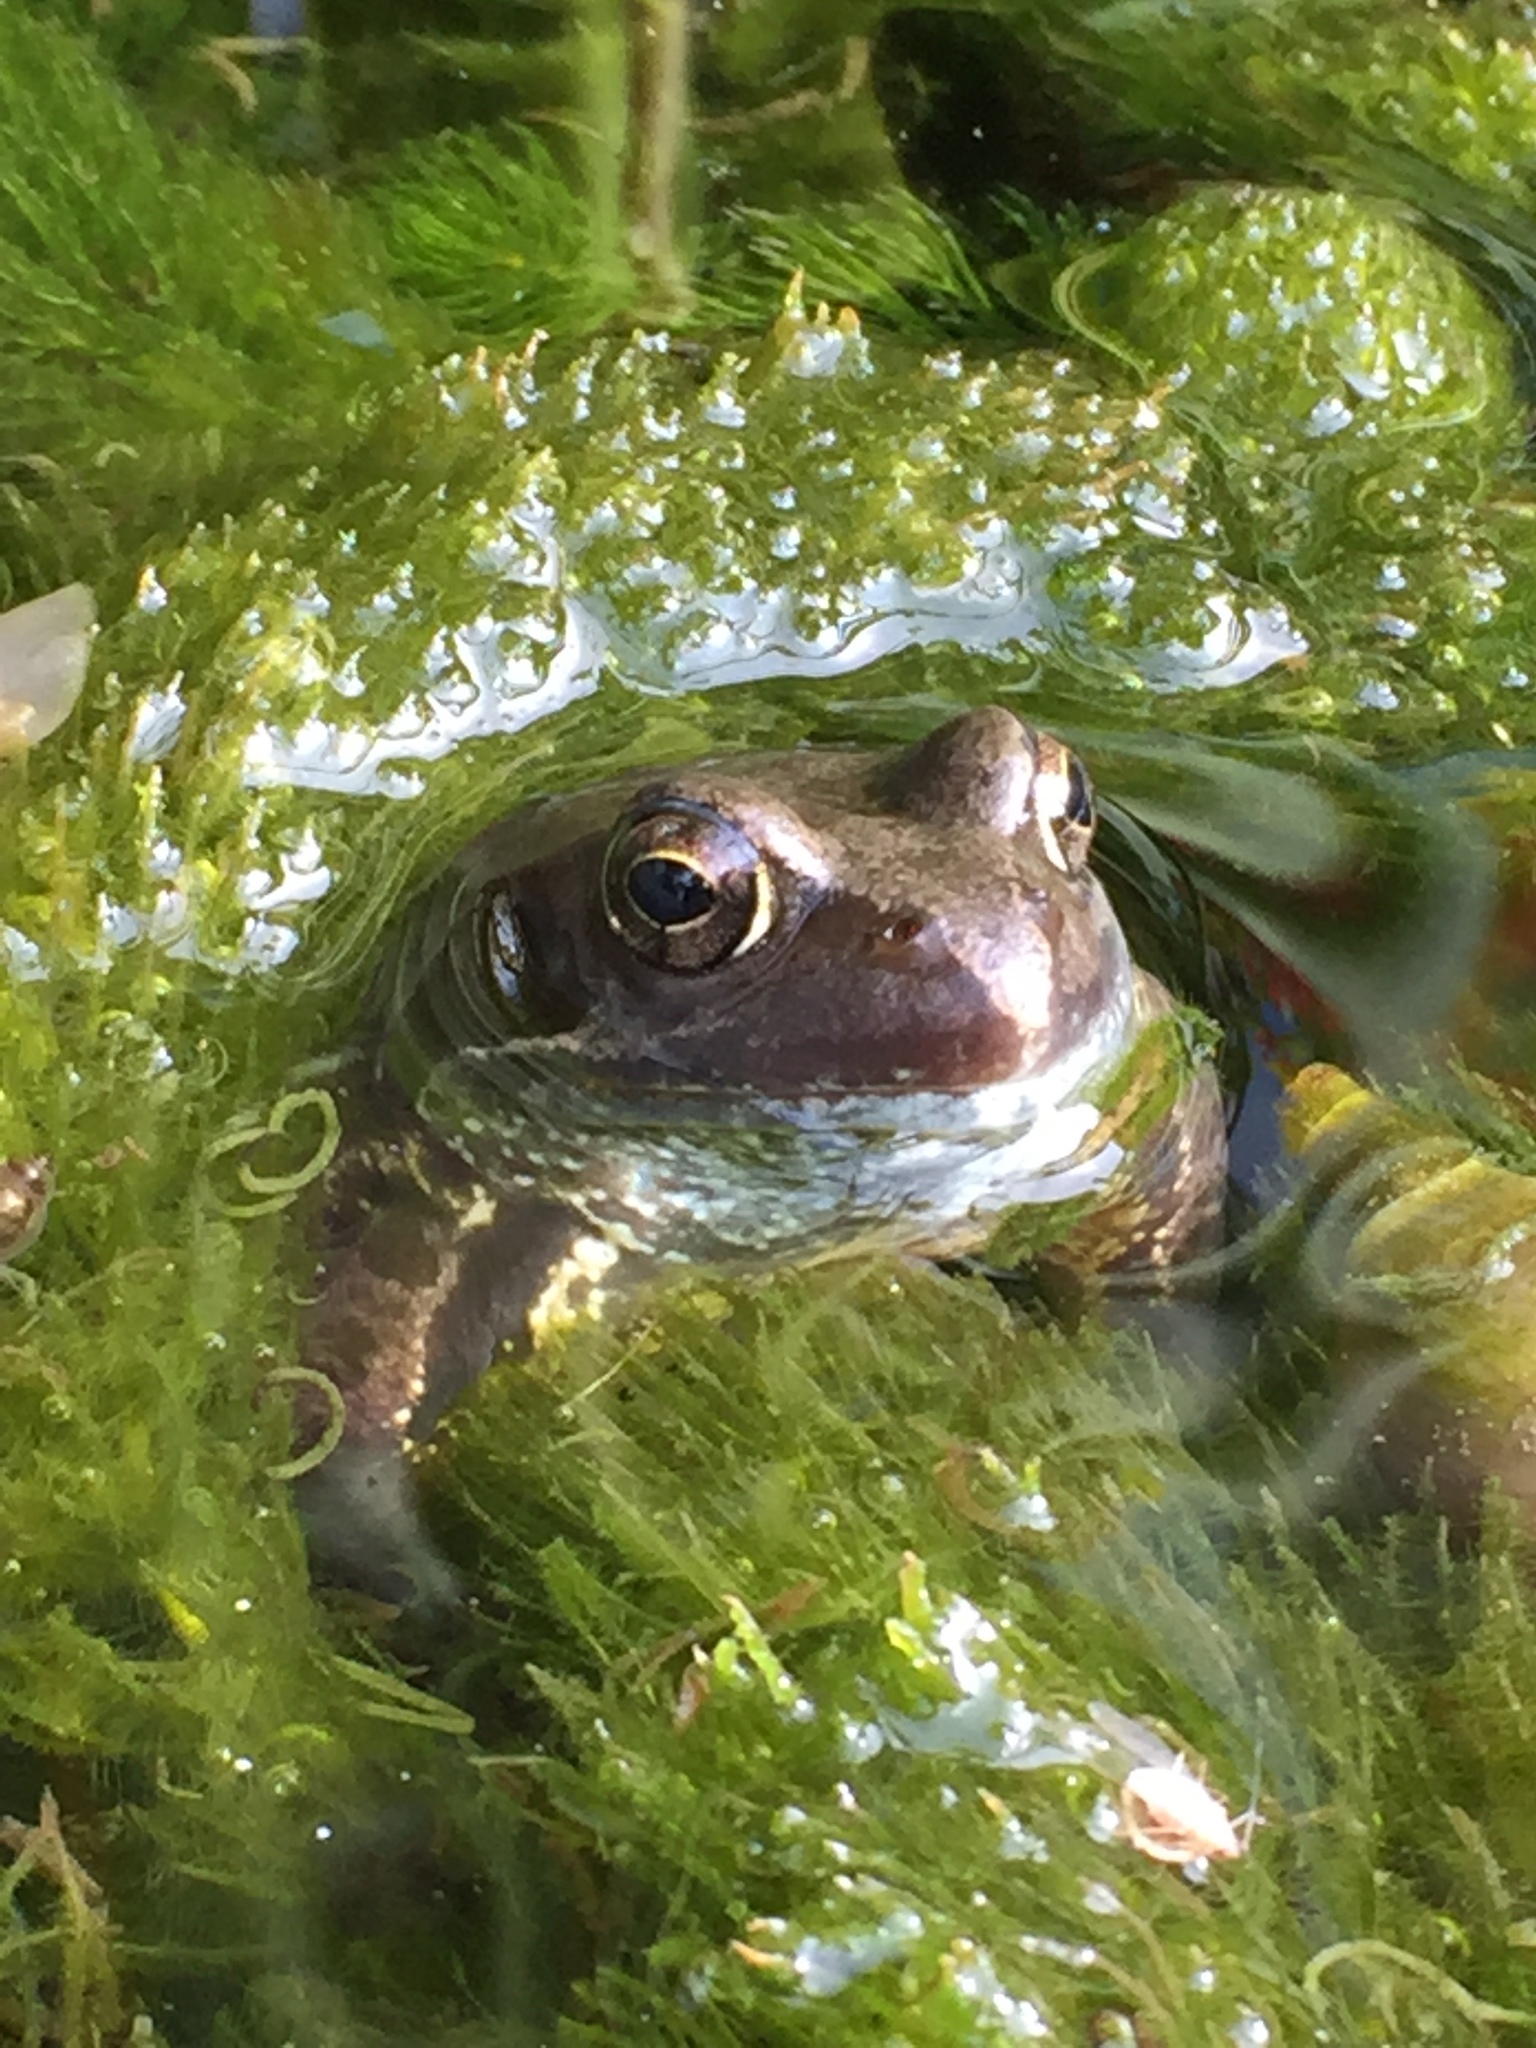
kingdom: Animalia
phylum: Chordata
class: Amphibia
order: Anura
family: Ranidae
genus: Rana
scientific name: Rana temporaria
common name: Common frog
